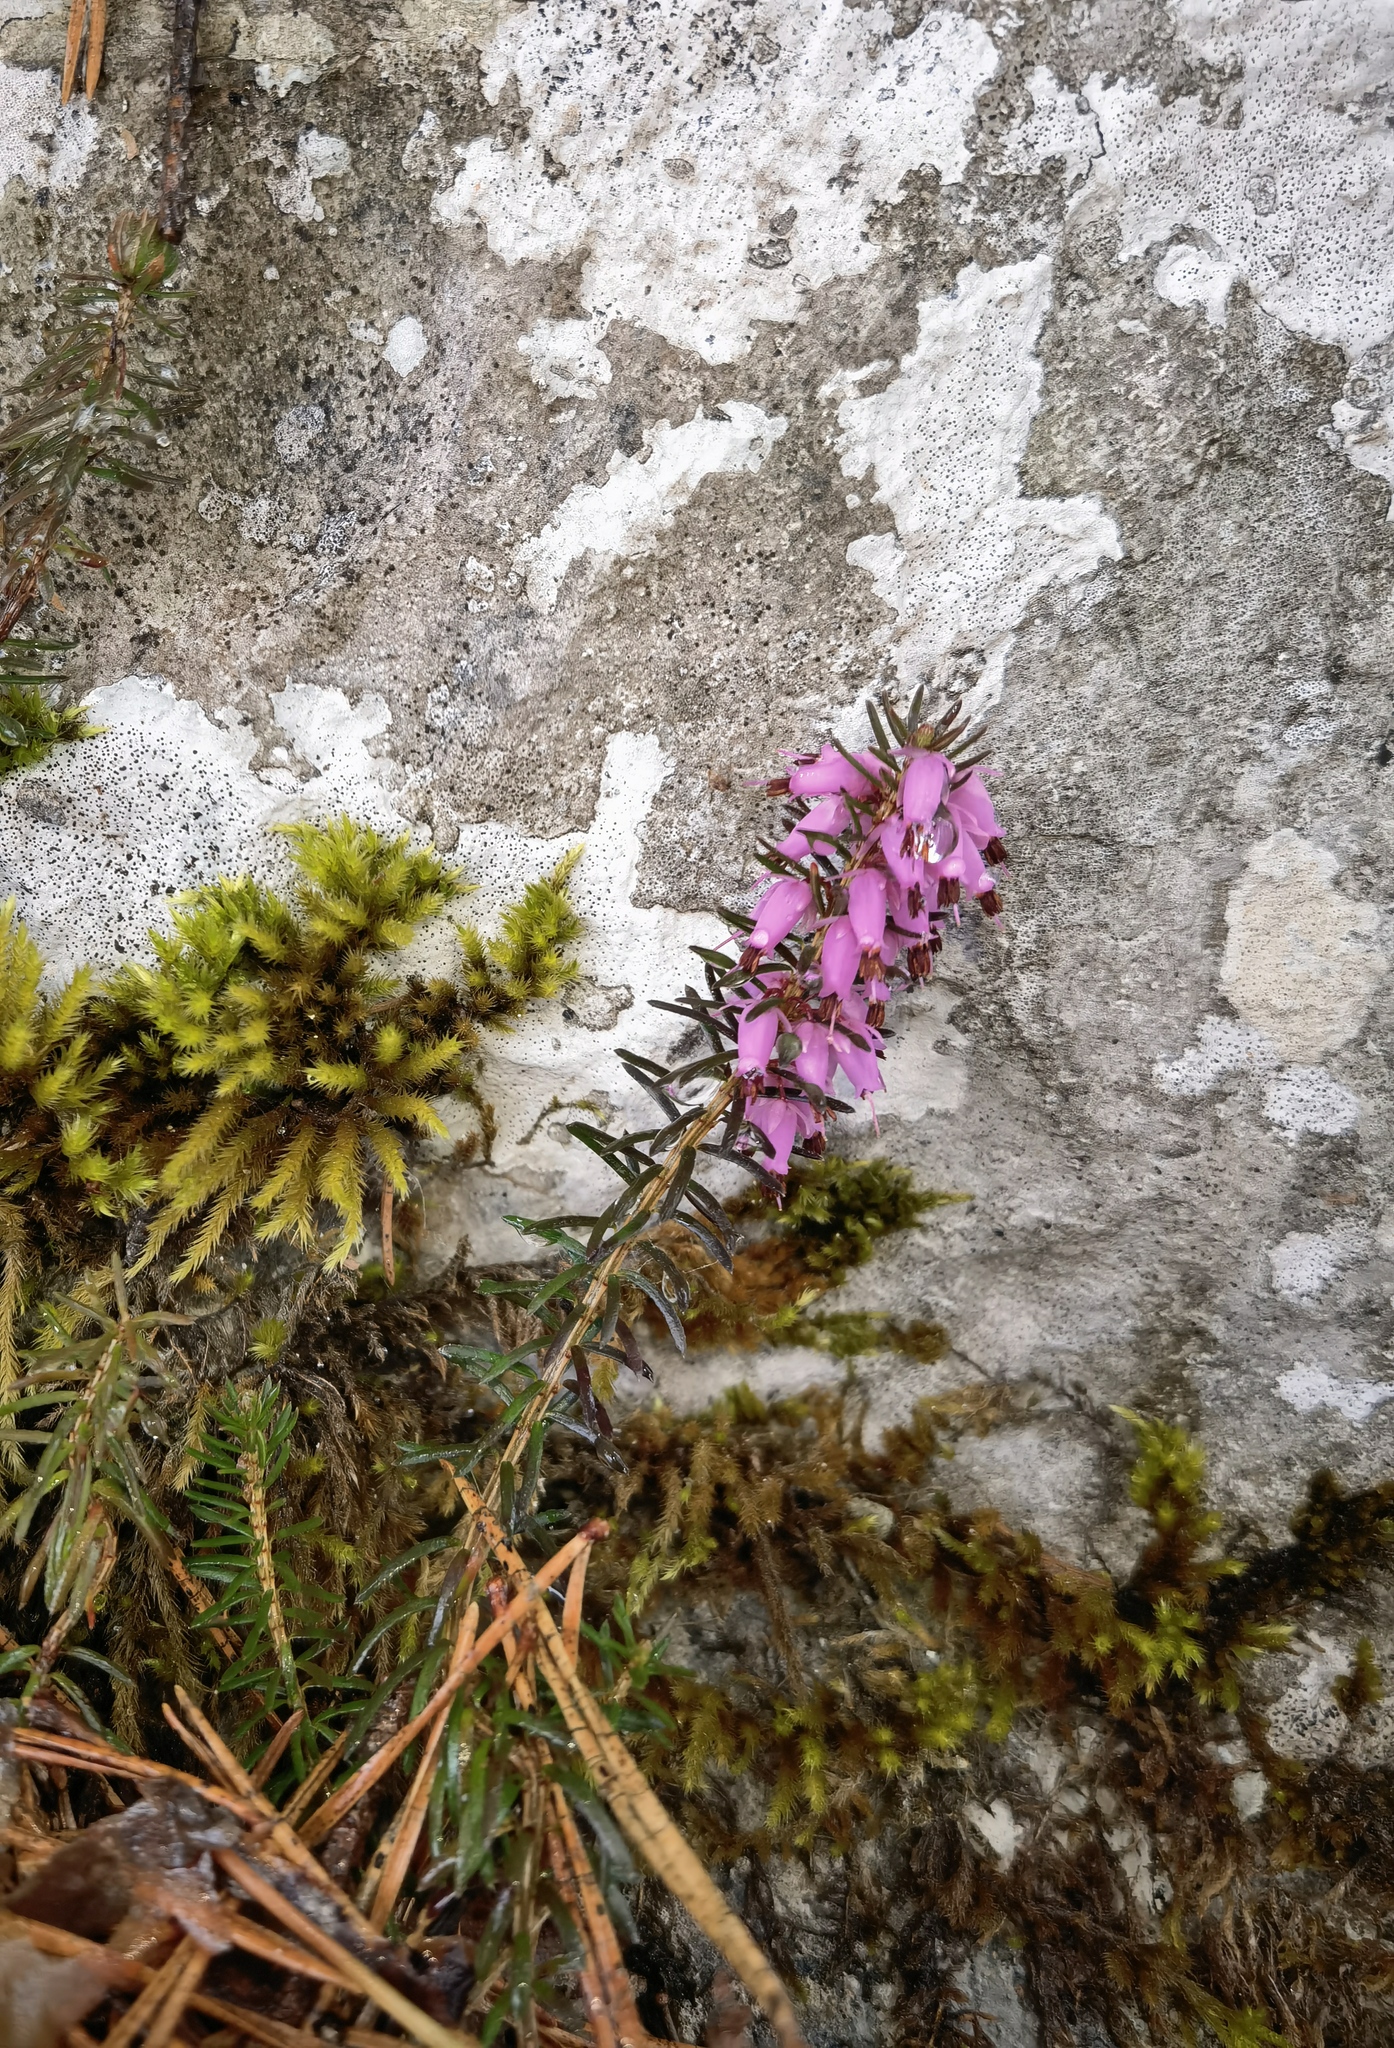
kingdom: Plantae
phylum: Tracheophyta
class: Magnoliopsida
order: Ericales
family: Ericaceae
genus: Erica
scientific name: Erica carnea
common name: Winter heath
